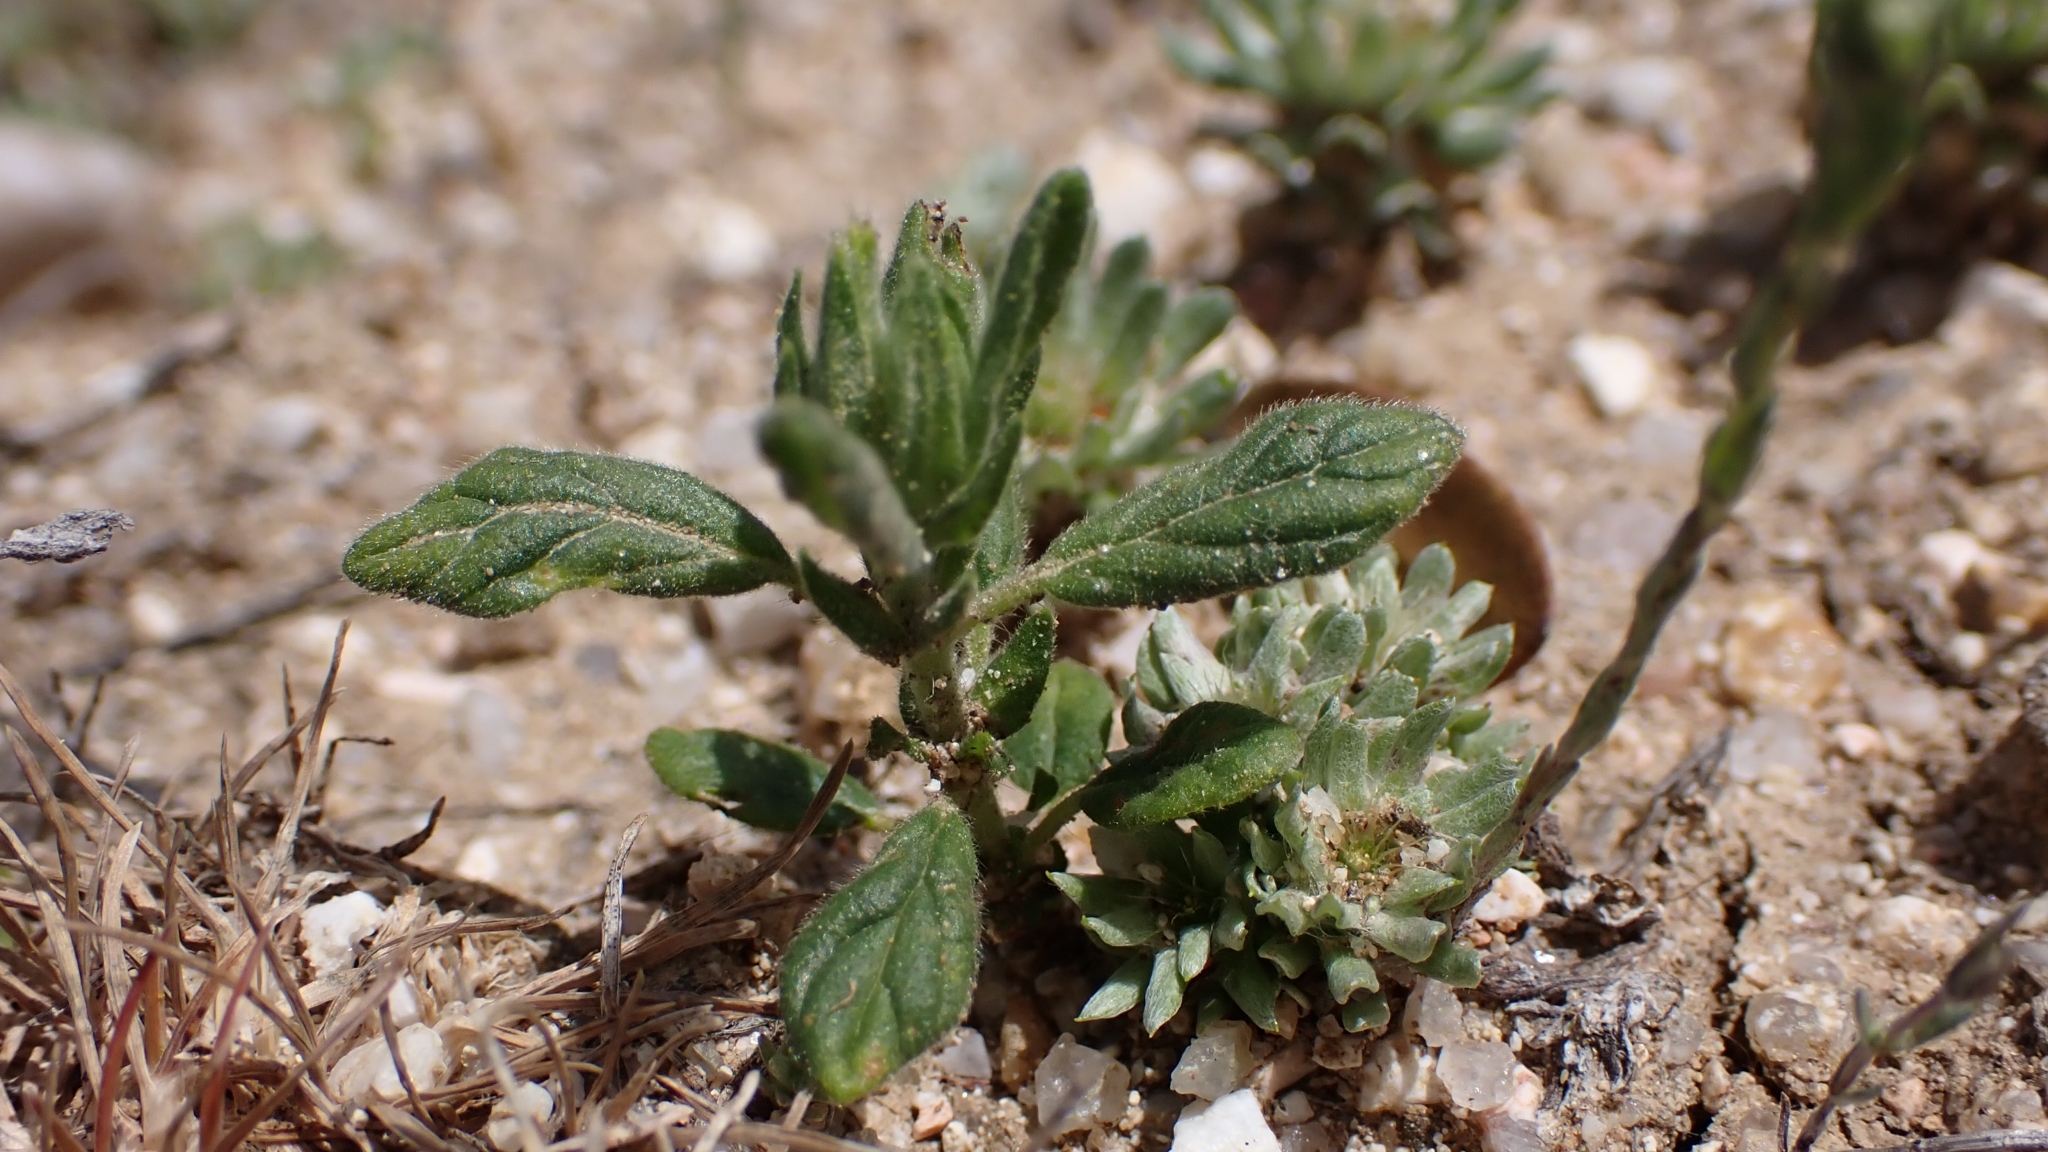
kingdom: Plantae
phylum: Tracheophyta
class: Magnoliopsida
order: Malvales
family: Cistaceae
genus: Helianthemum
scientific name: Helianthemum salicifolium
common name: Willowleaf frostweed
